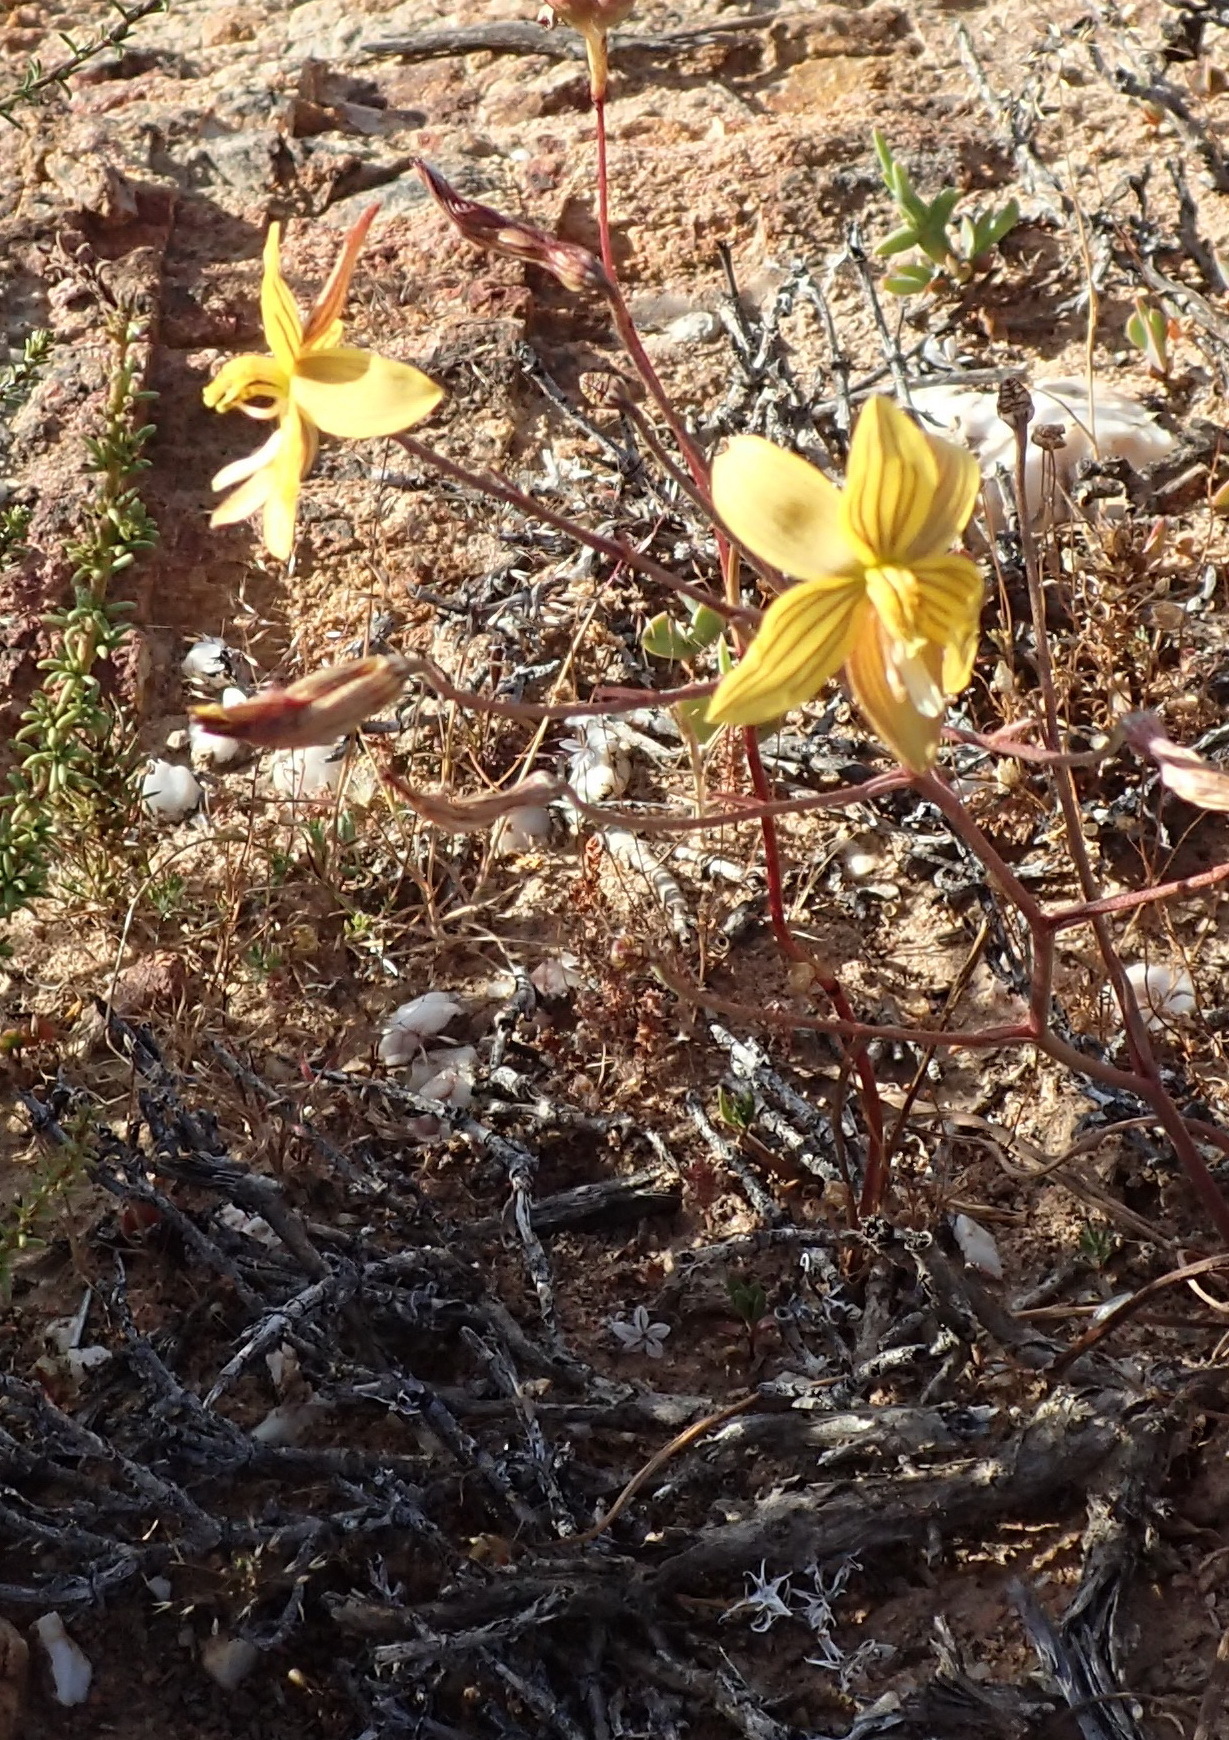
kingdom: Plantae
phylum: Tracheophyta
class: Liliopsida
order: Asparagales
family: Tecophilaeaceae
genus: Cyanella
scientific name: Cyanella lutea
